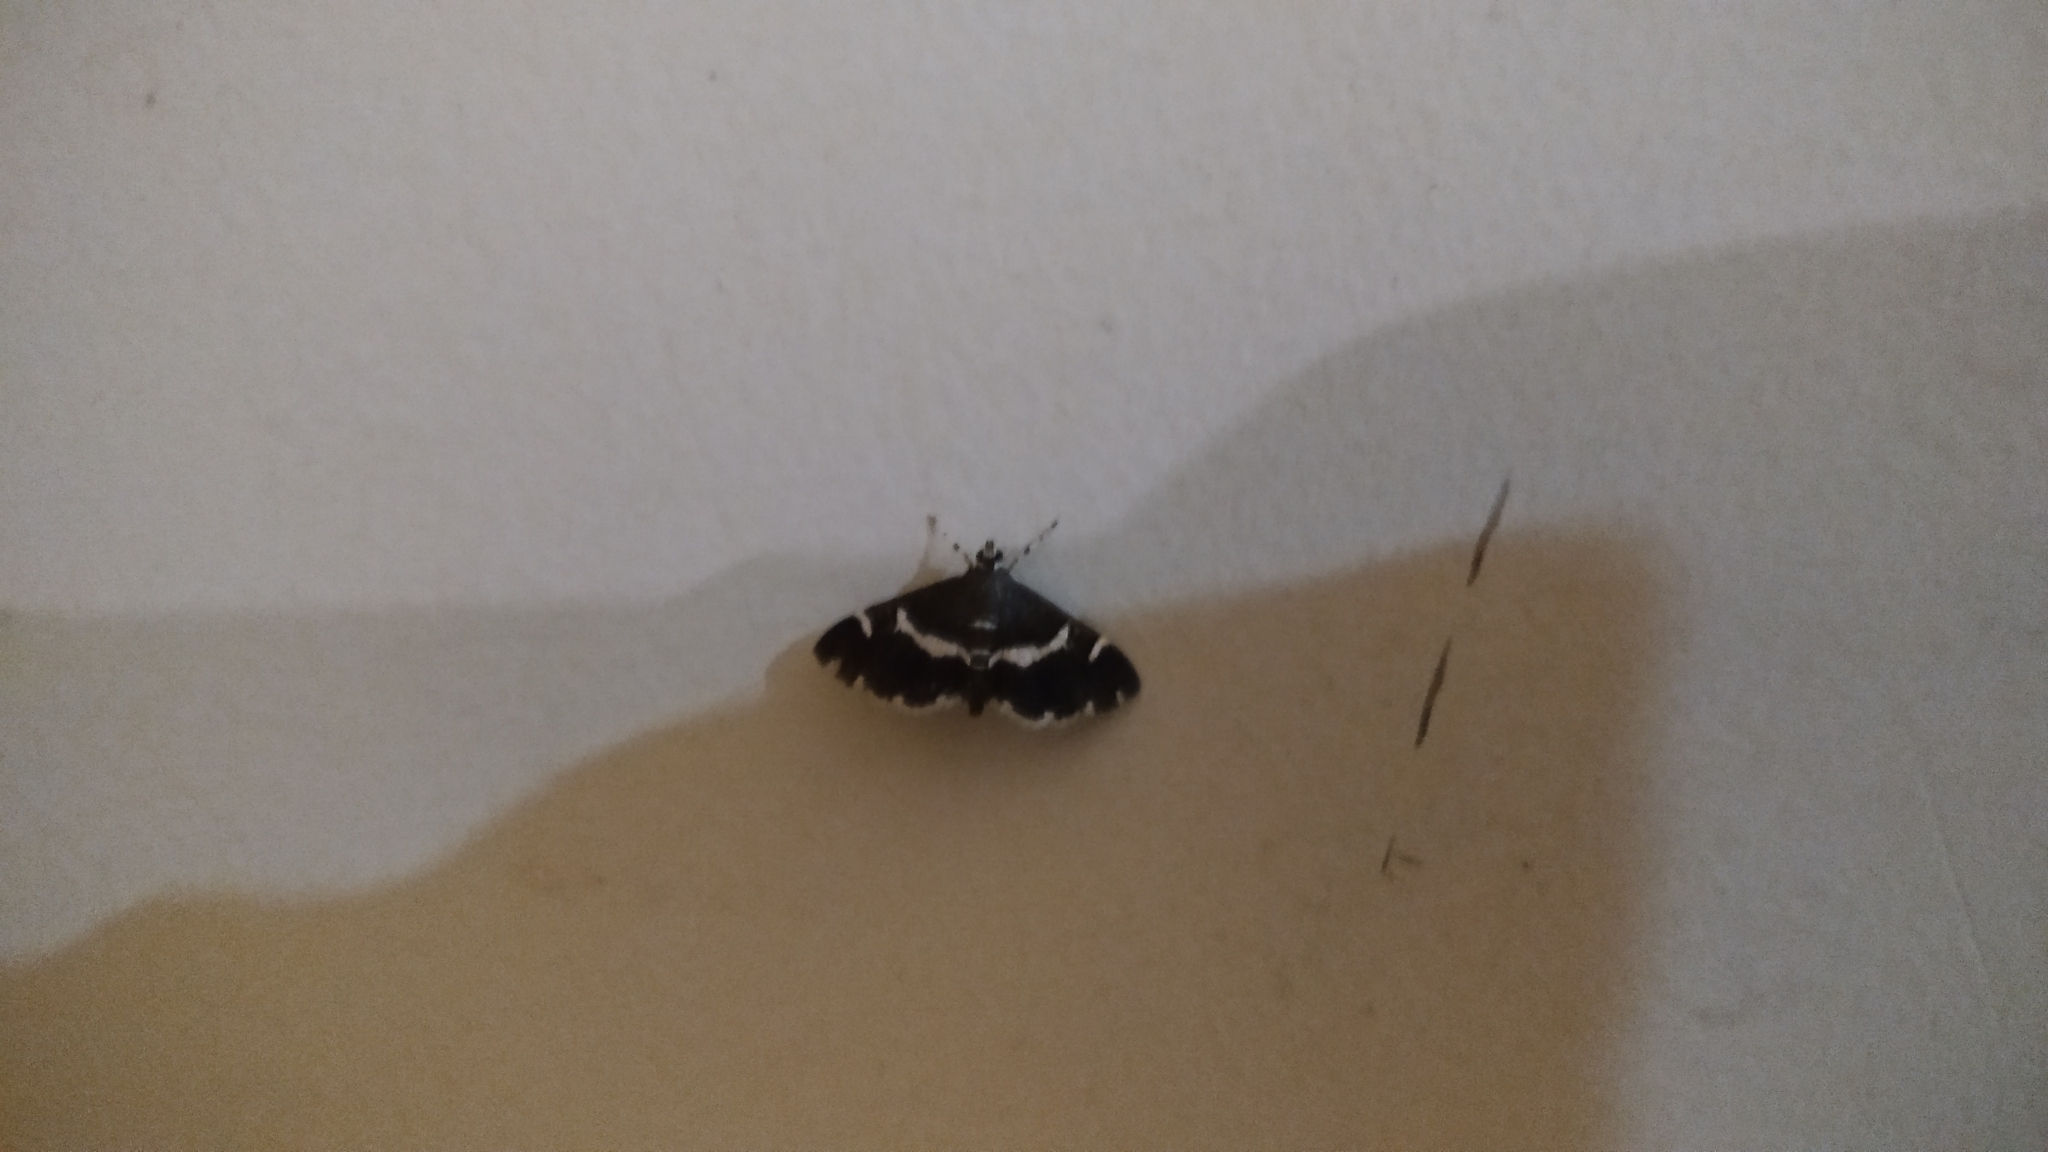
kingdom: Animalia
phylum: Arthropoda
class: Insecta
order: Lepidoptera
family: Crambidae
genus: Spoladea
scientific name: Spoladea recurvalis
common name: Beet webworm moth
